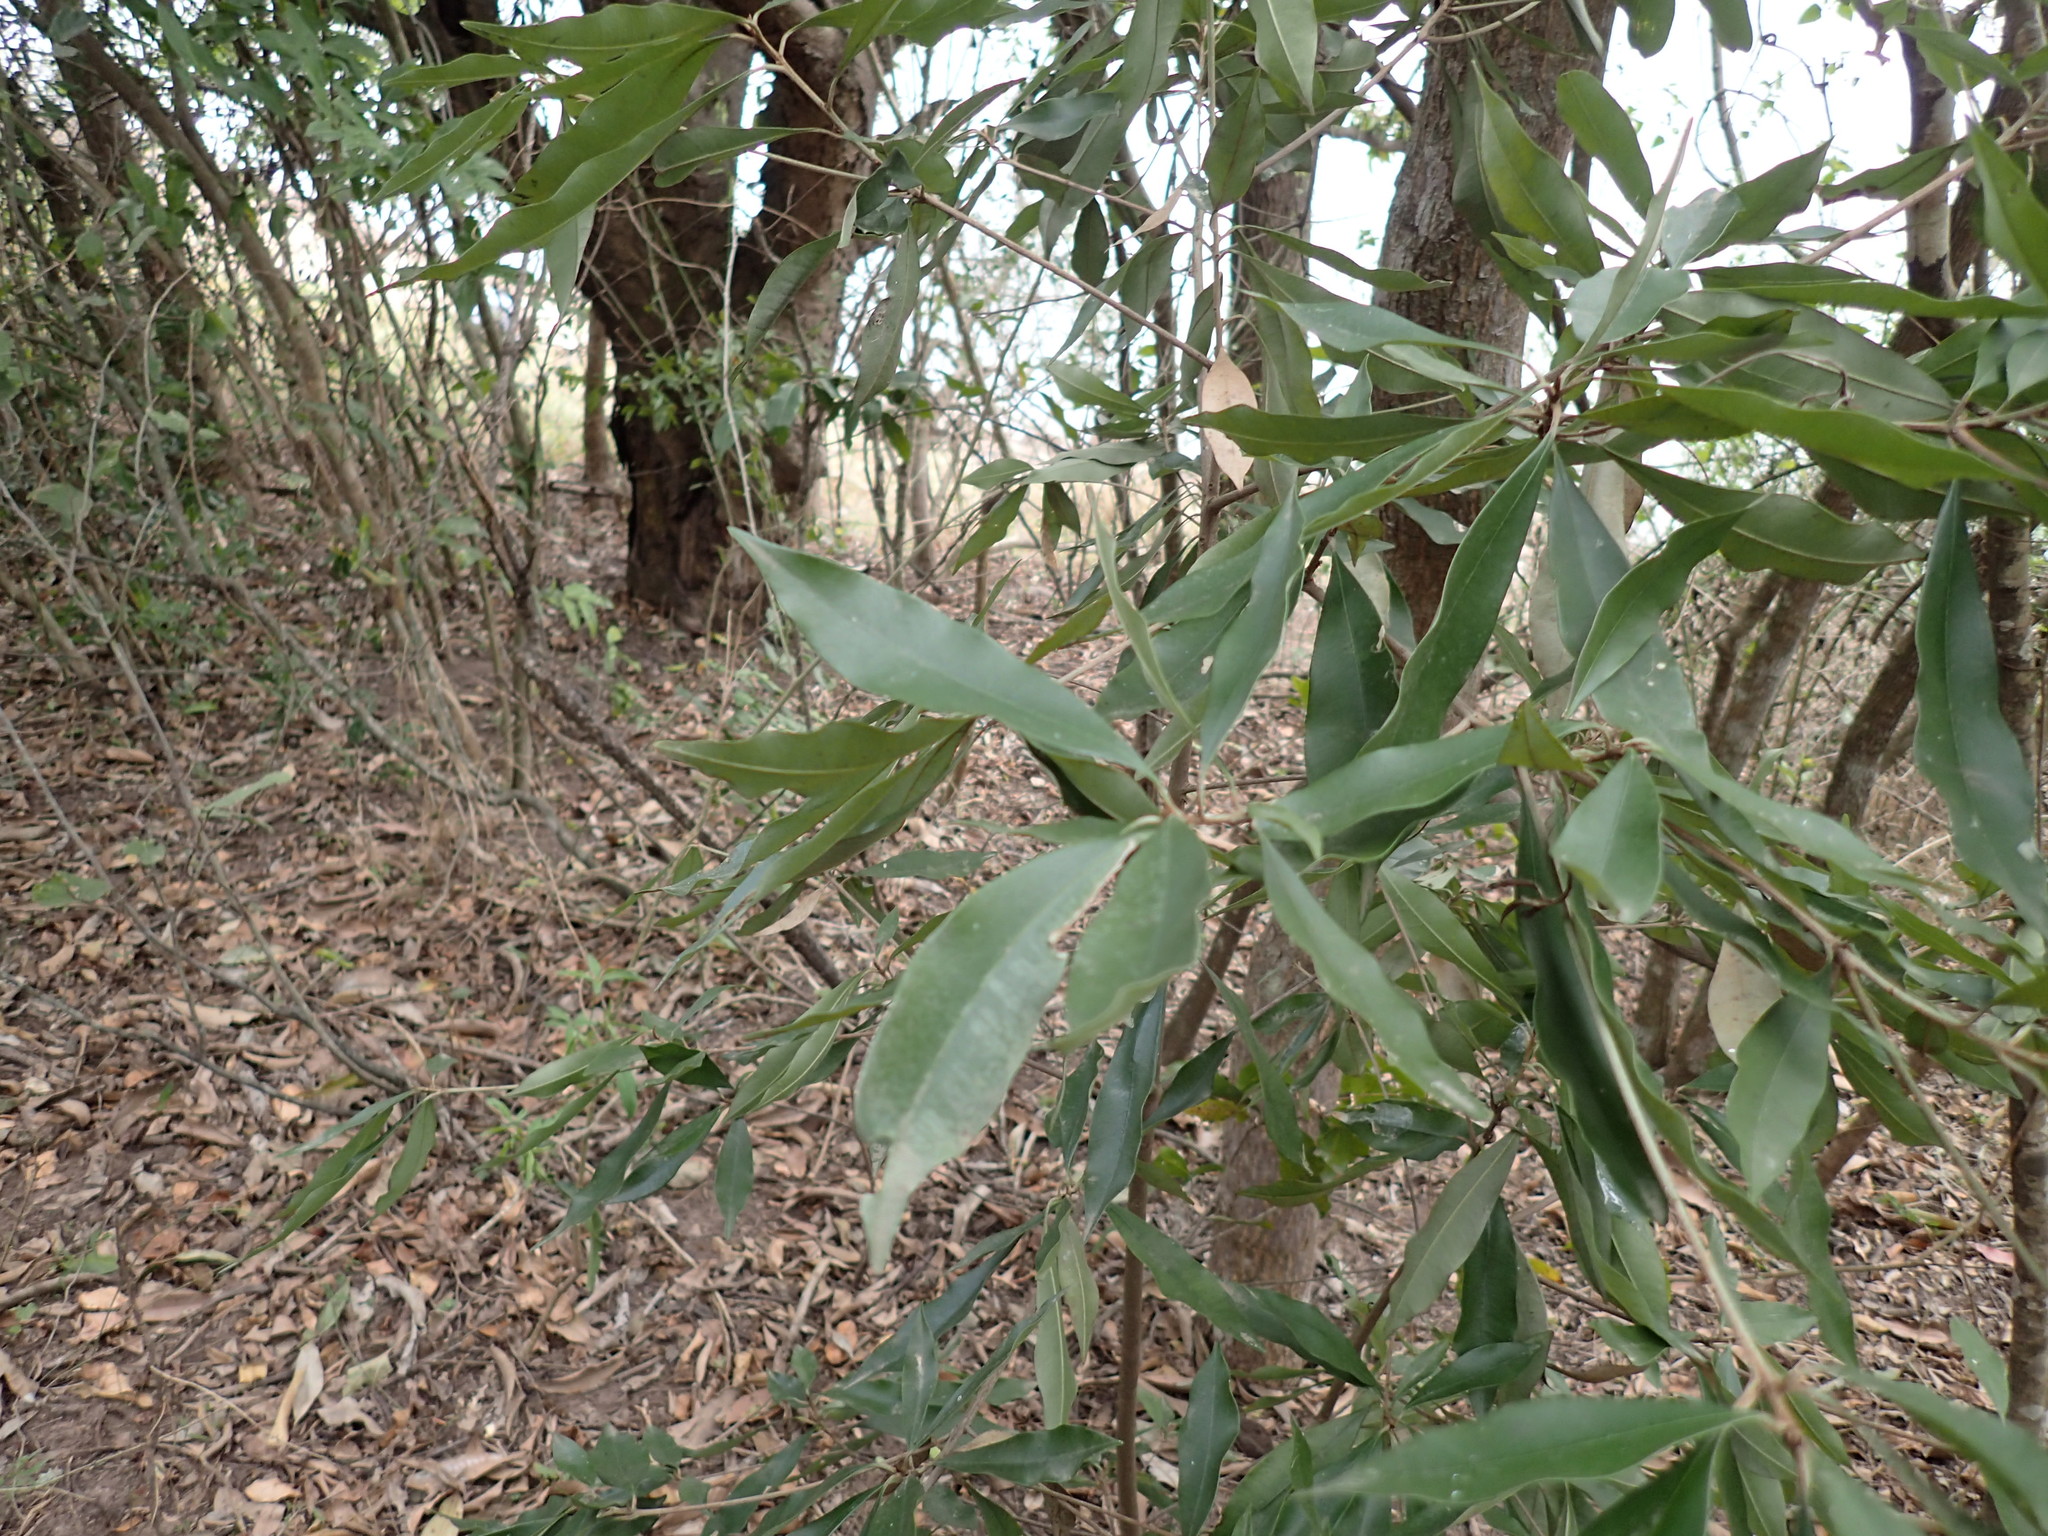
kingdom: Plantae
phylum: Tracheophyta
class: Magnoliopsida
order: Ericales
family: Sapotaceae
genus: Englerophytum
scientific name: Englerophytum natalense
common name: Silver-leaved milkplum
